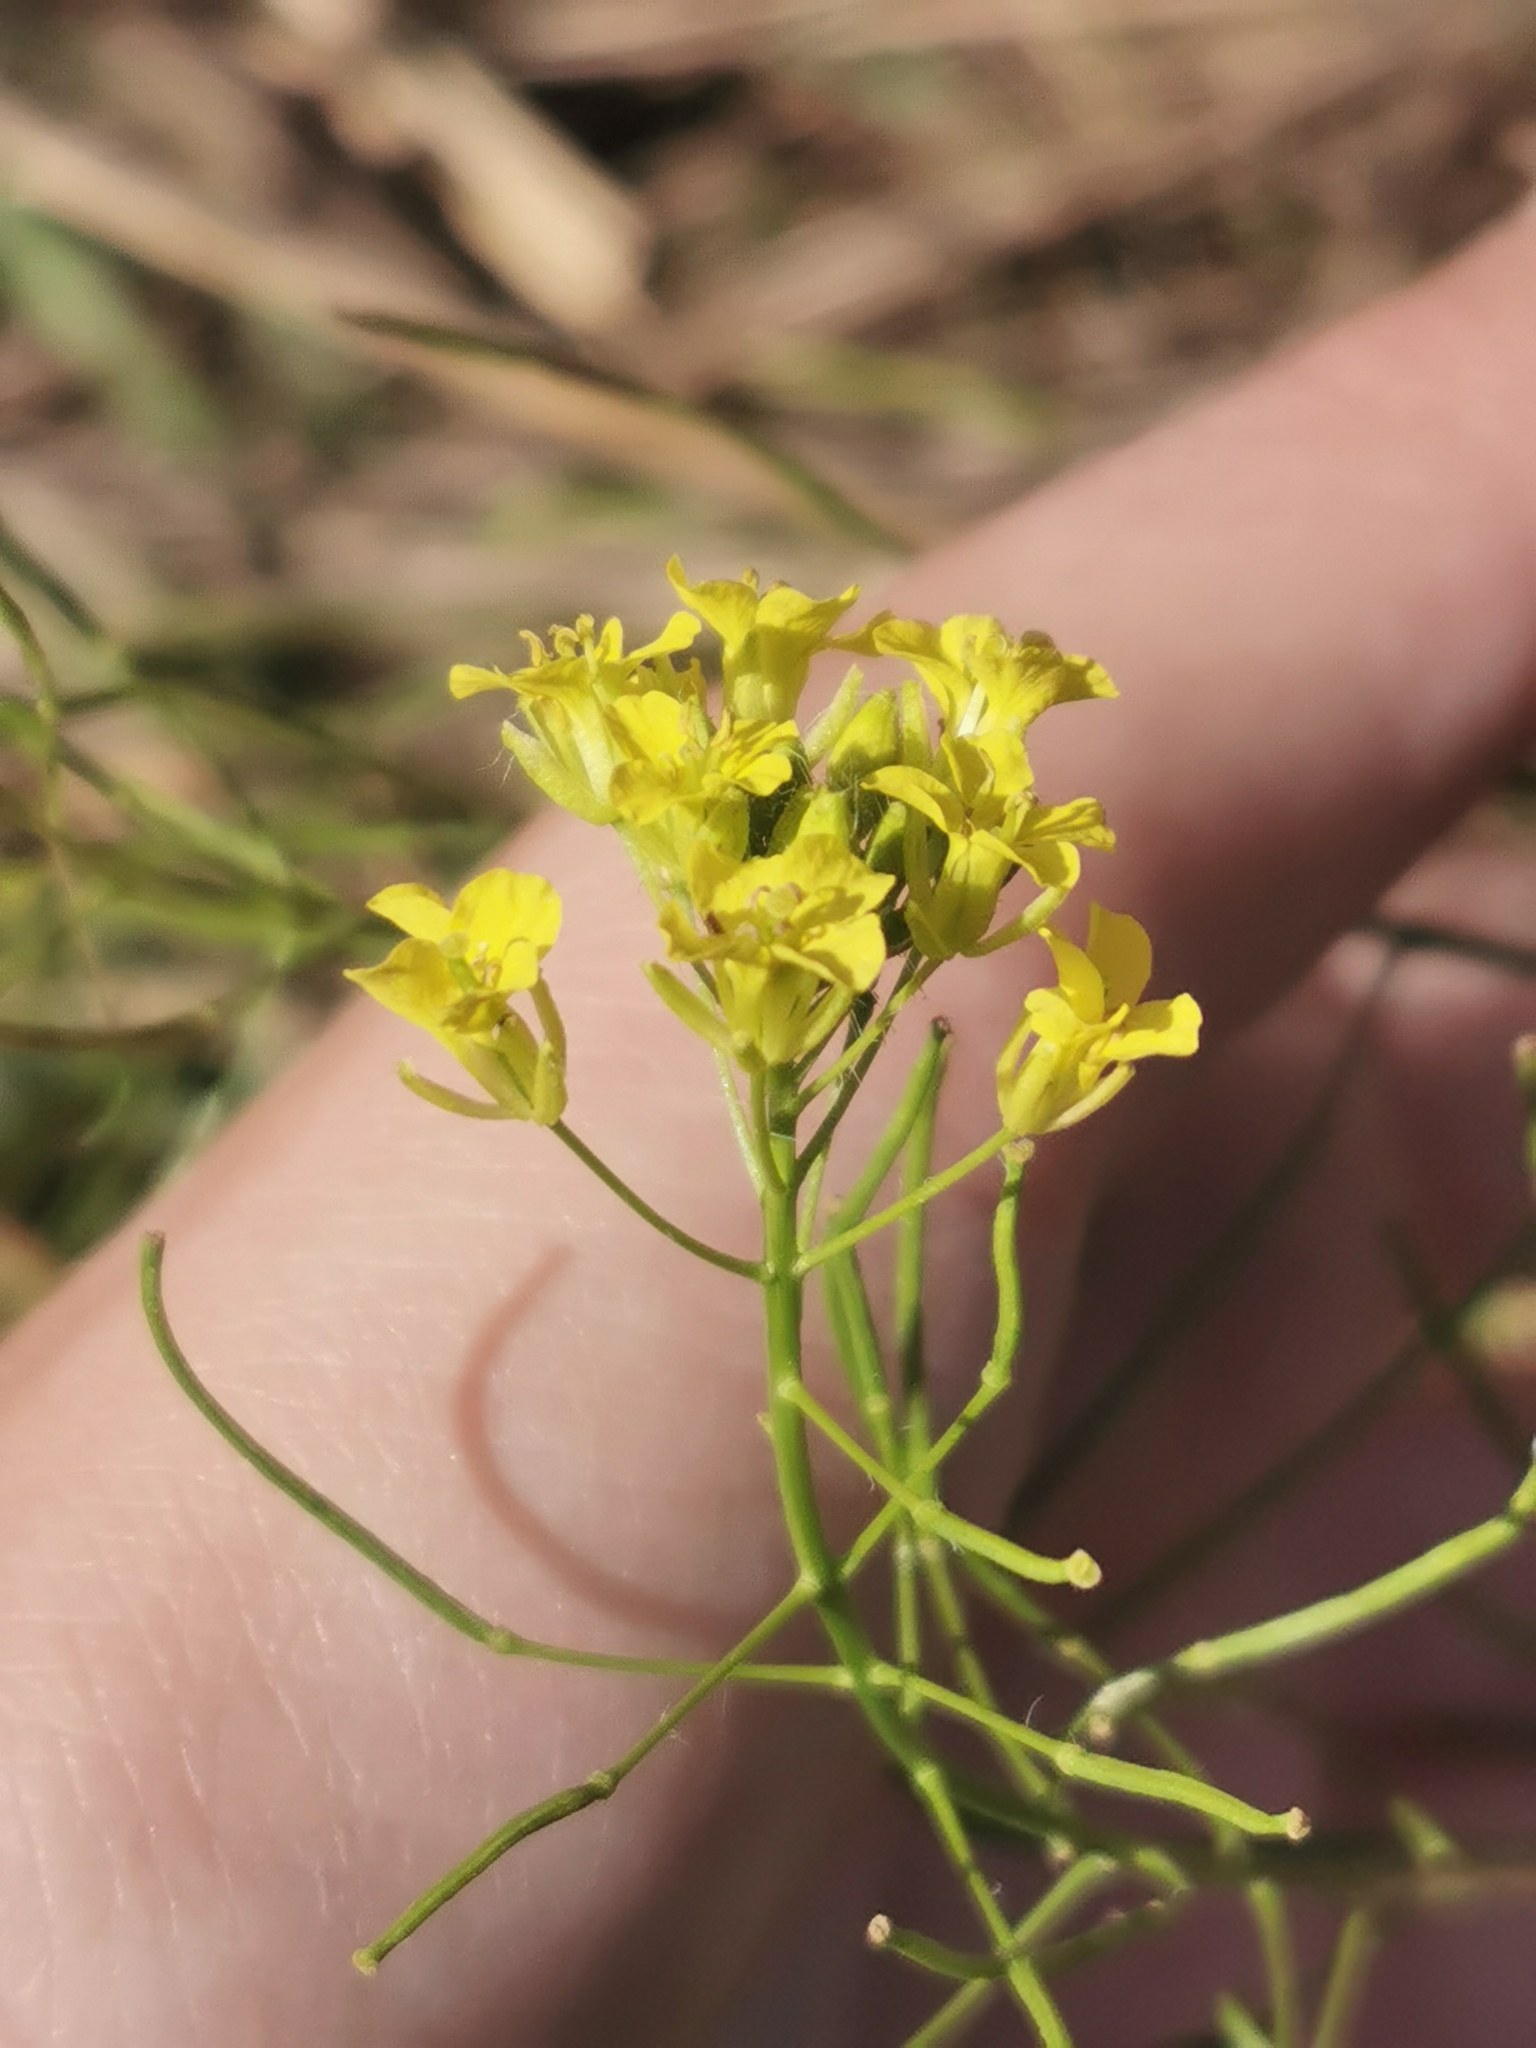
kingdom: Plantae
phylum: Tracheophyta
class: Magnoliopsida
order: Brassicales
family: Brassicaceae
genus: Sisymbrium
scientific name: Sisymbrium loeselii
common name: False london-rocket
